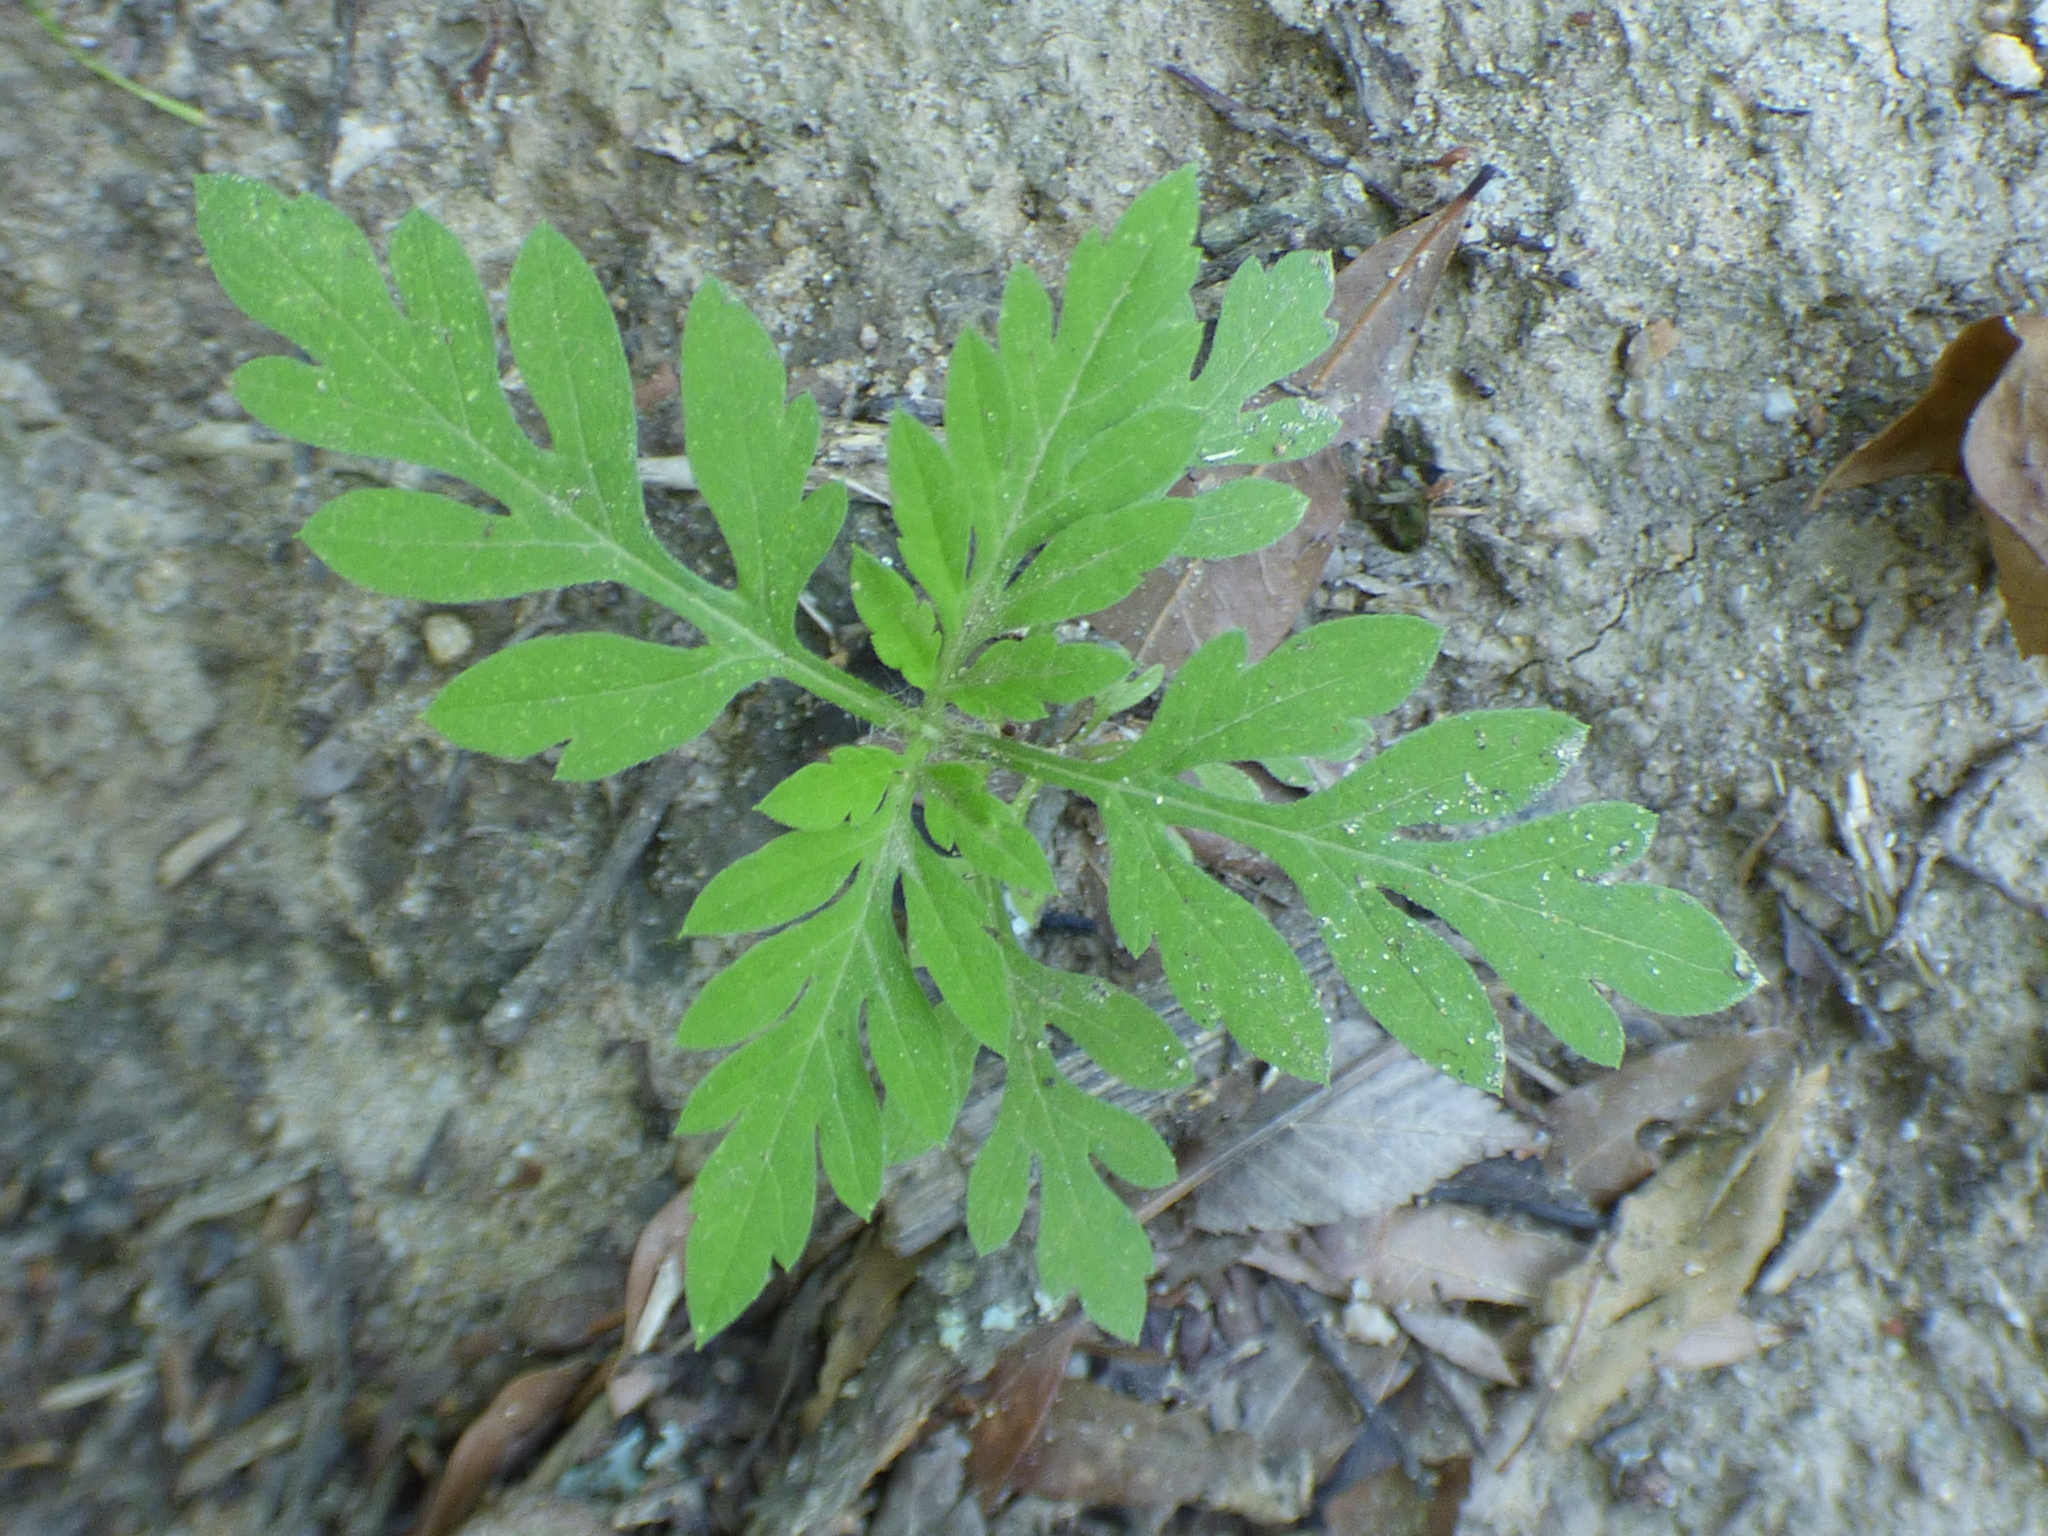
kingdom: Plantae
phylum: Tracheophyta
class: Magnoliopsida
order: Asterales
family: Asteraceae
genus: Ambrosia
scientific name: Ambrosia artemisiifolia
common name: Annual ragweed
